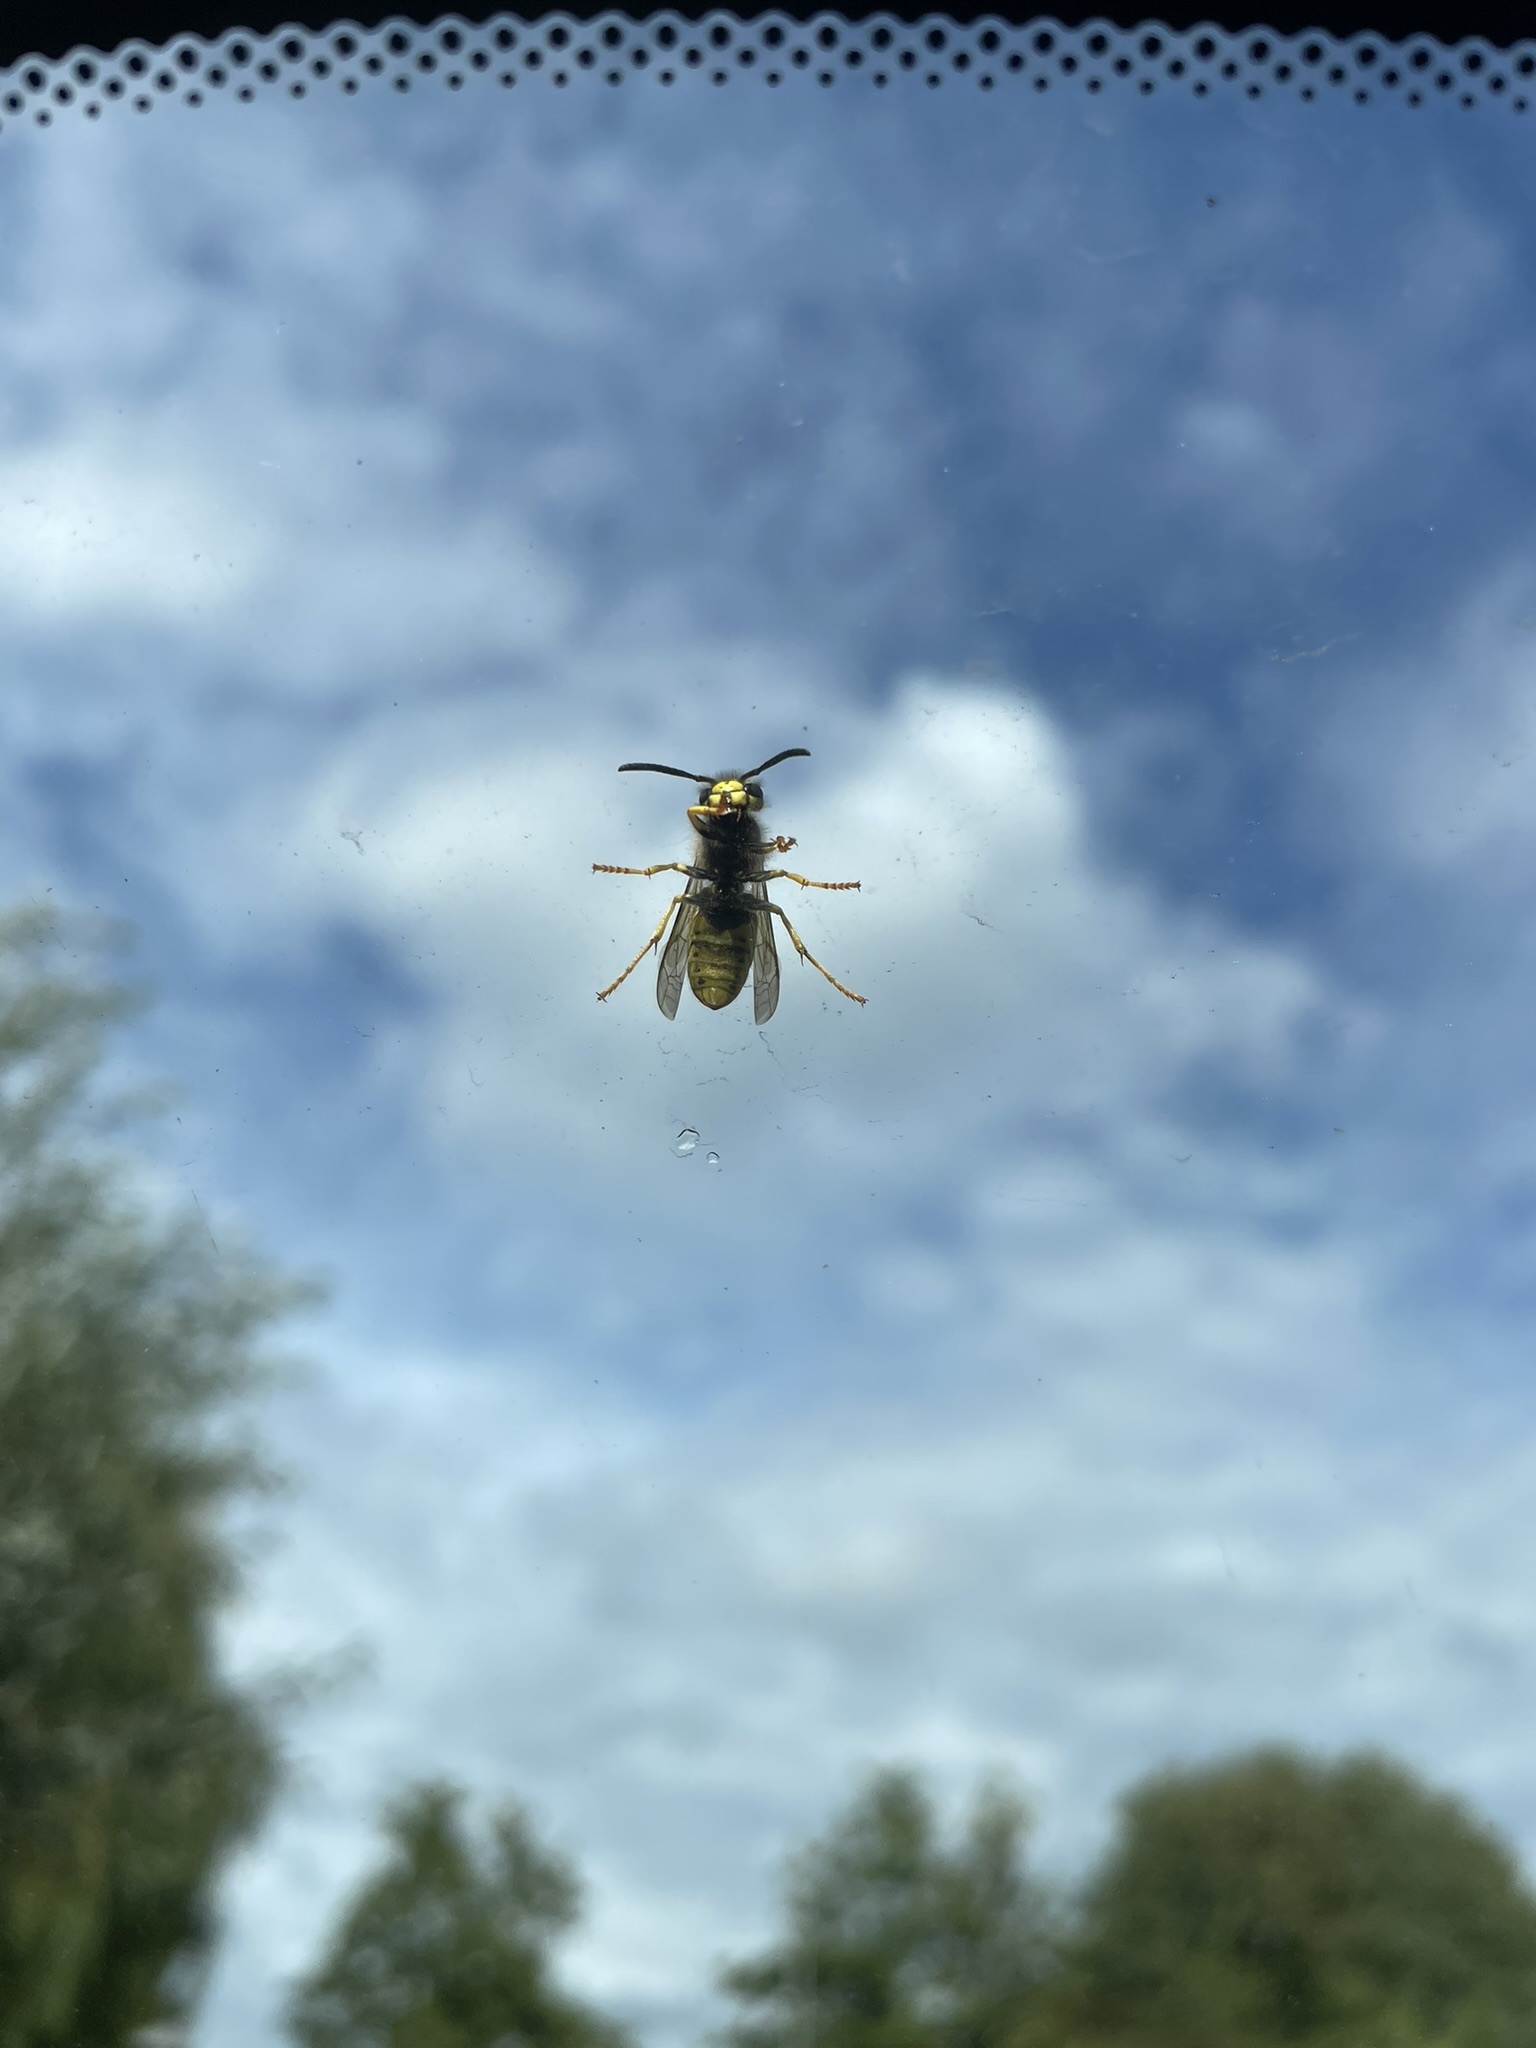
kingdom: Animalia
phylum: Arthropoda
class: Insecta
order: Hymenoptera
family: Vespidae
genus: Vespula
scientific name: Vespula germanica
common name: German wasp
